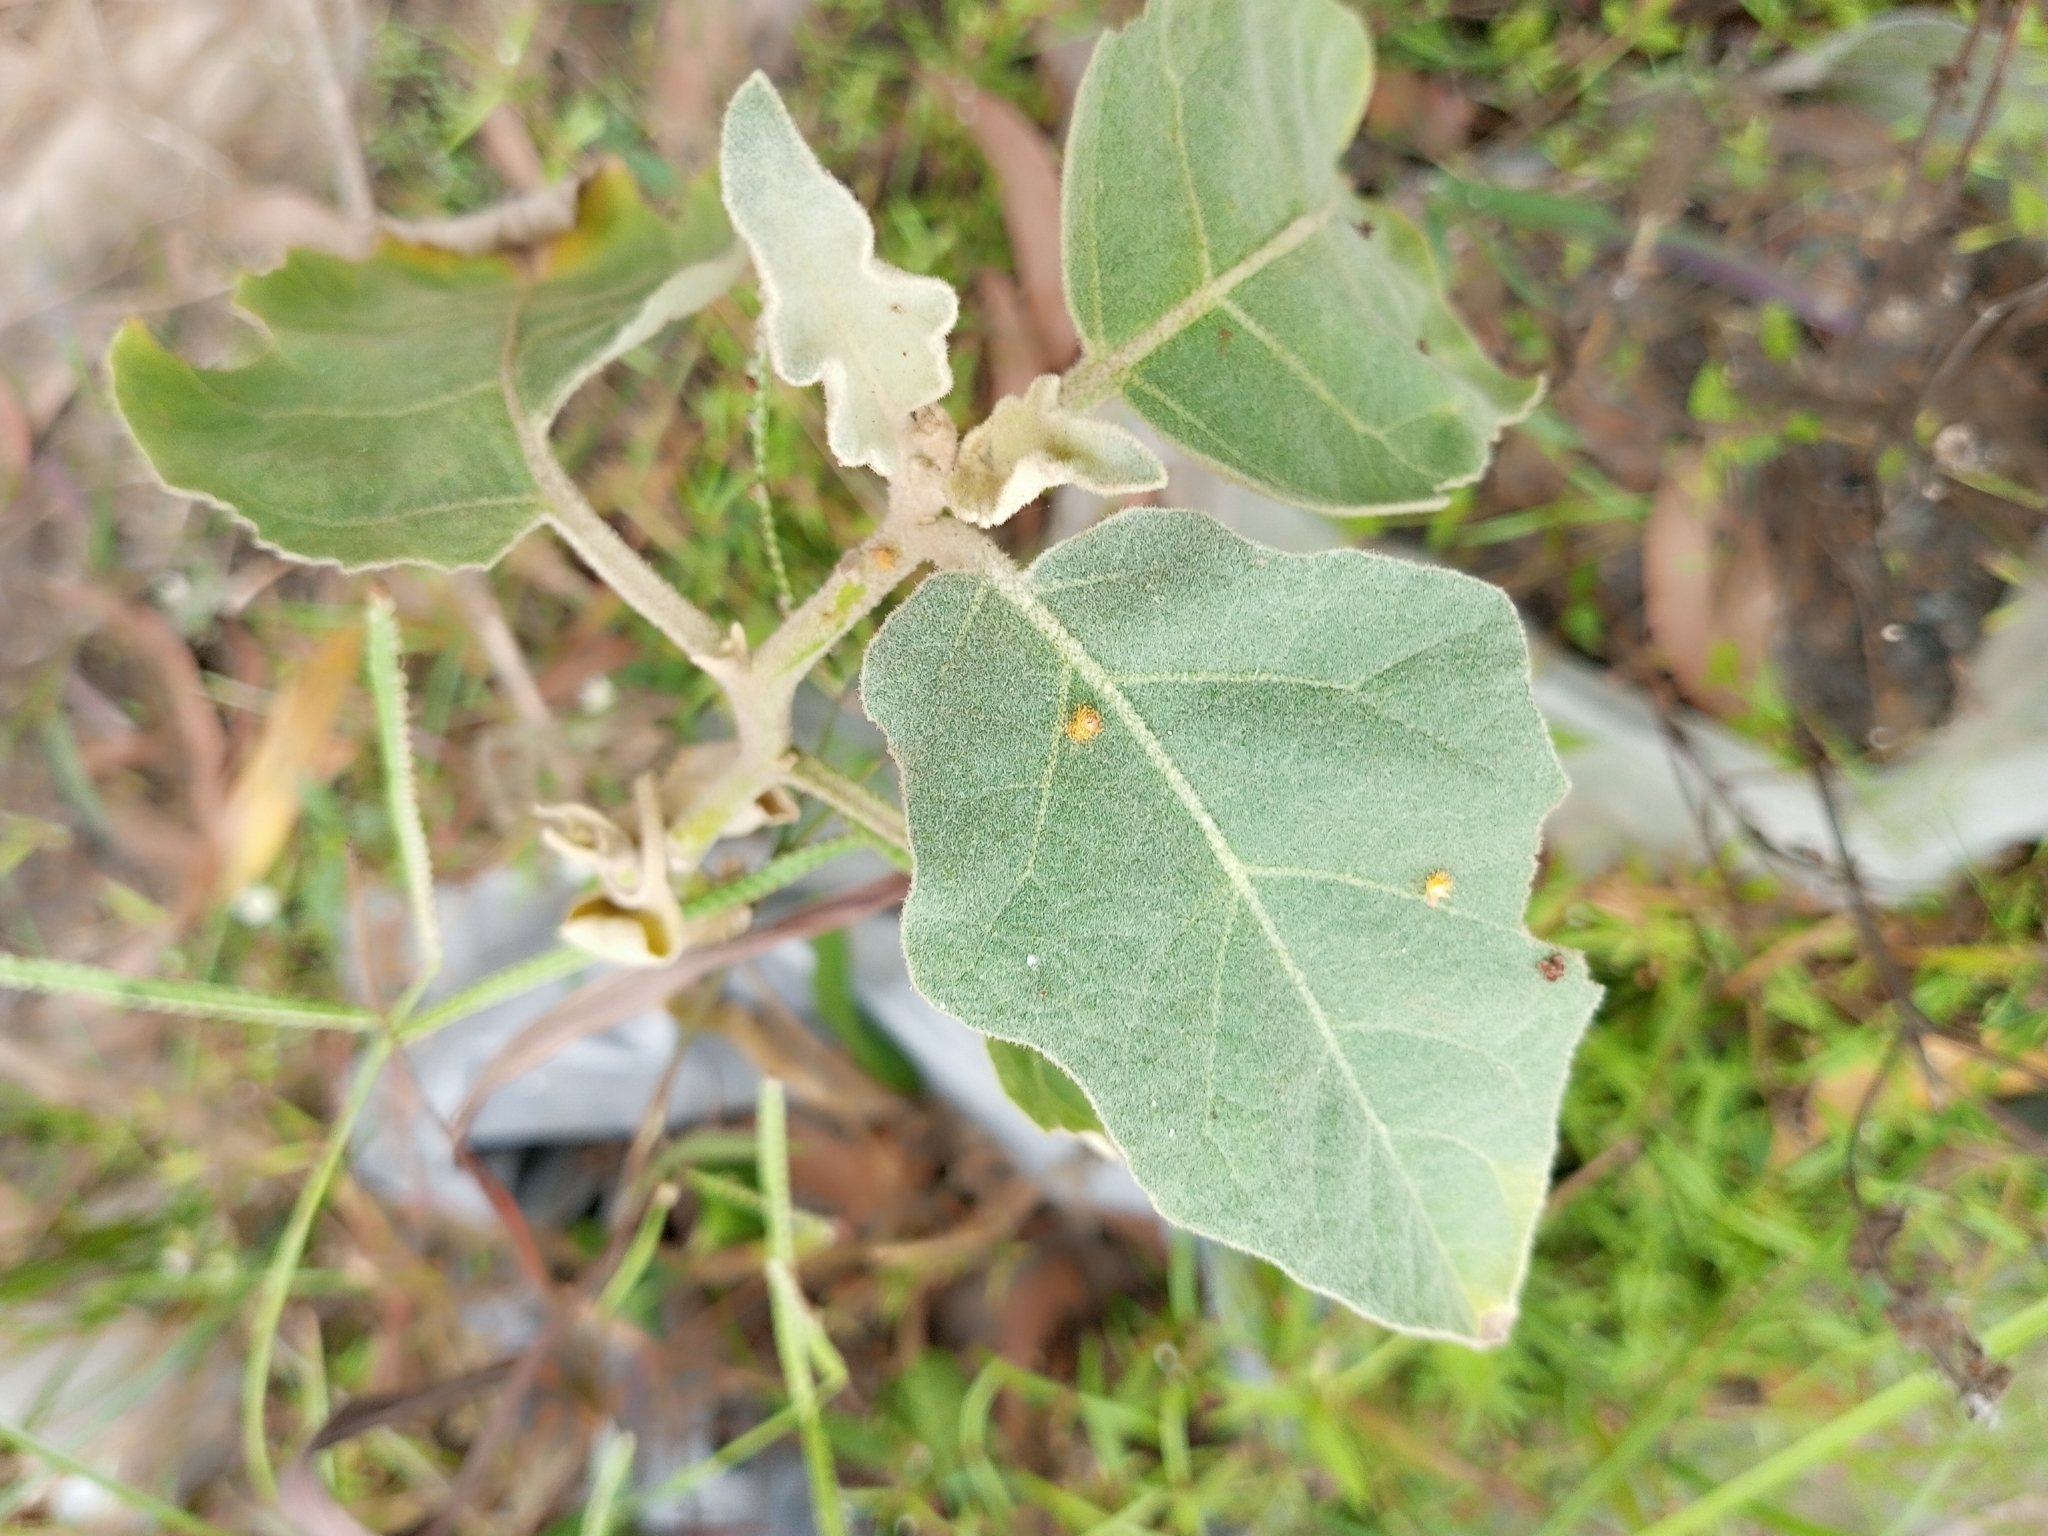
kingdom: Plantae
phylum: Tracheophyta
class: Magnoliopsida
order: Solanales
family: Solanaceae
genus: Solanum
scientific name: Solanum melongena
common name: Eggplant
